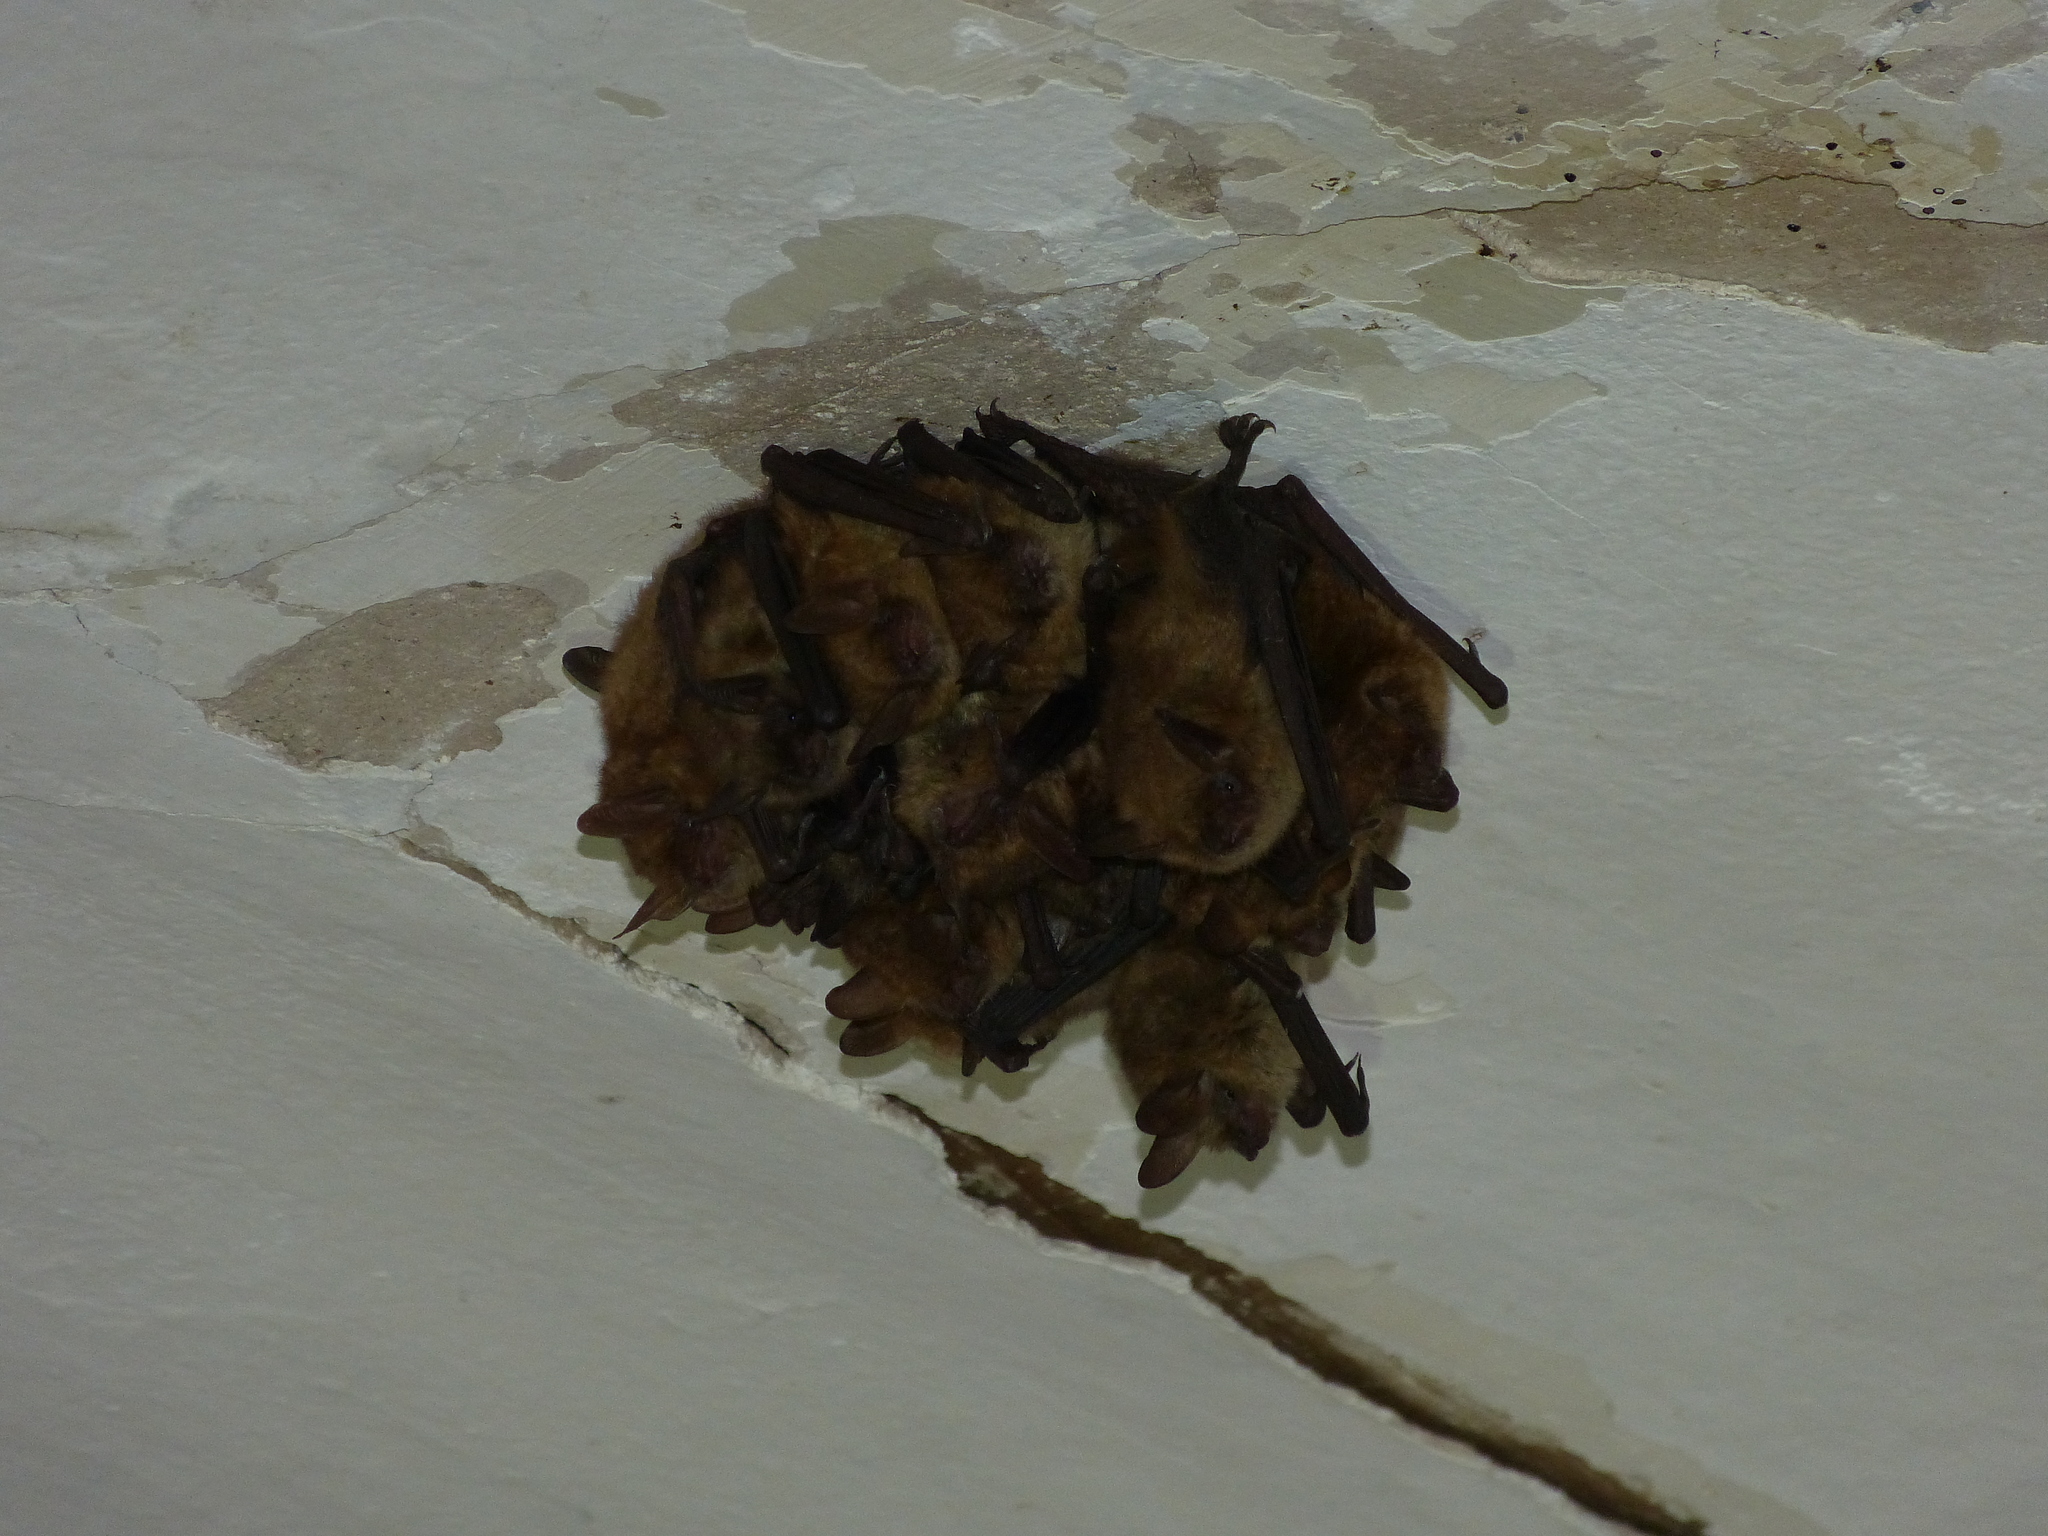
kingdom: Animalia
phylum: Chordata
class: Mammalia
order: Chiroptera
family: Vespertilionidae
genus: Myotis
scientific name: Myotis emarginatus
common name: Geoffroy's bat
